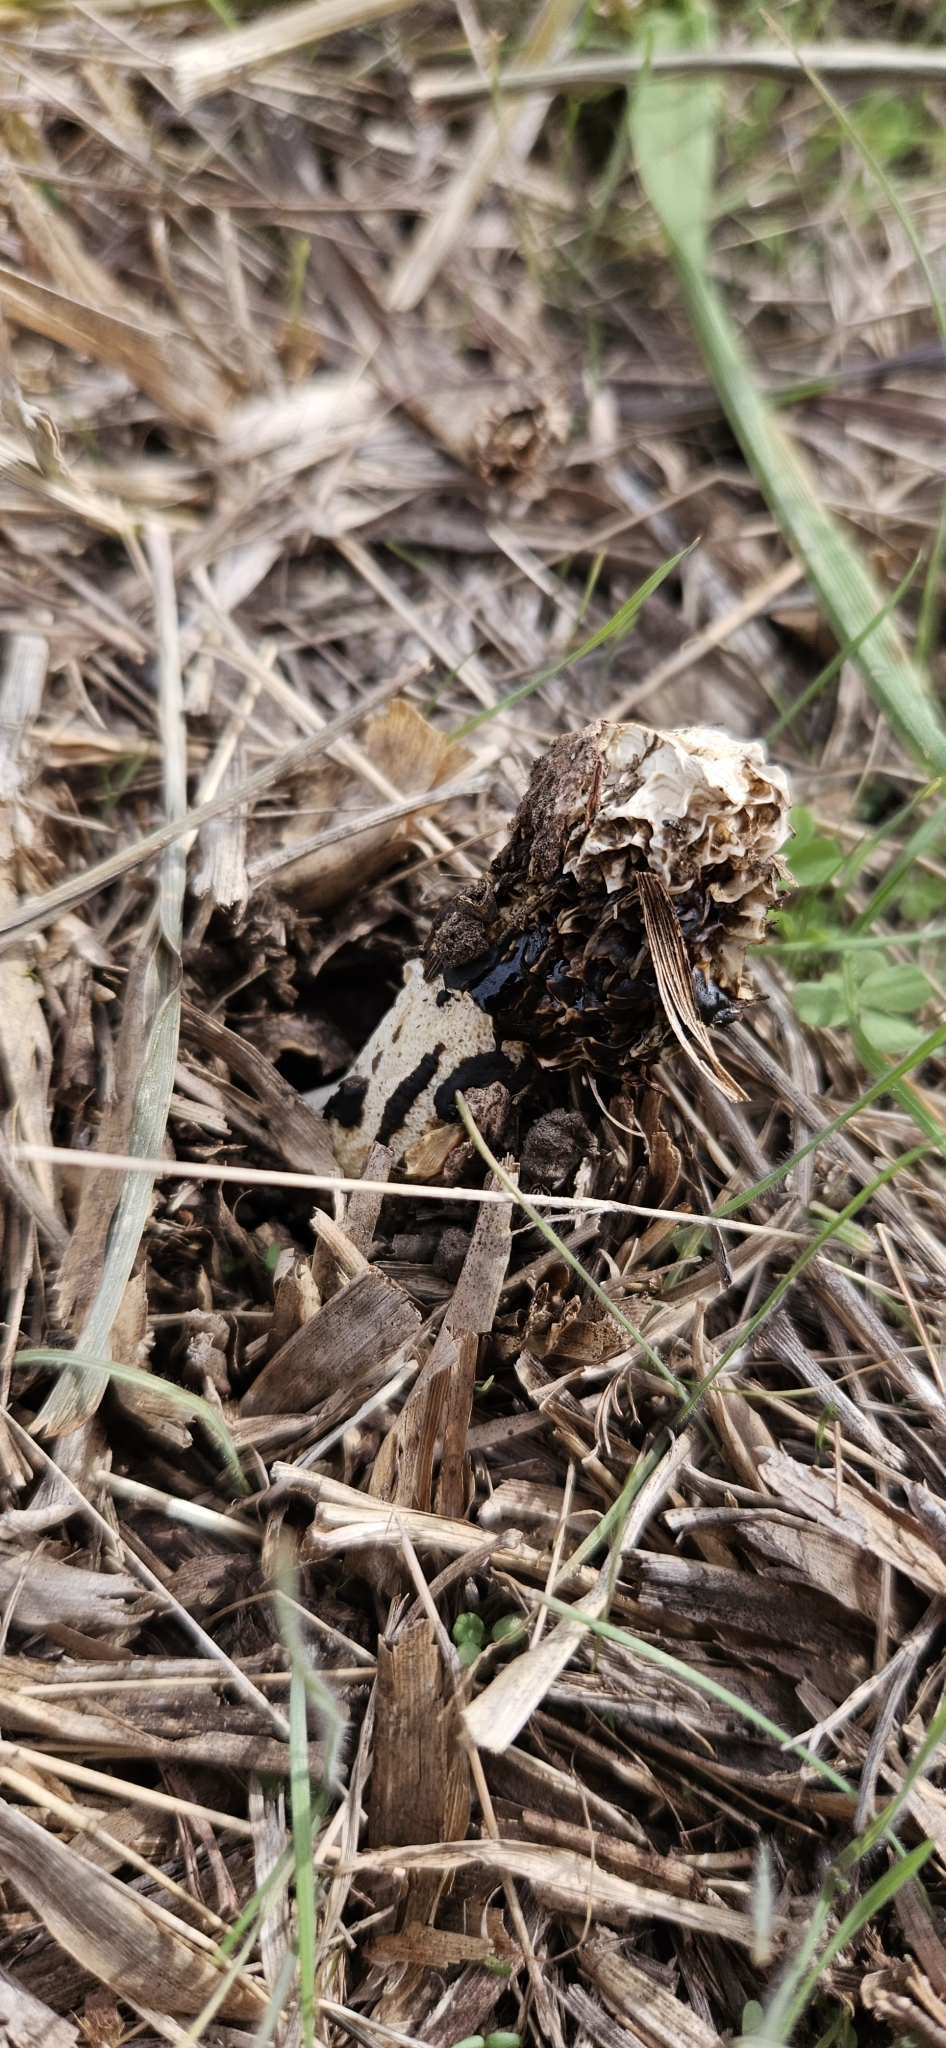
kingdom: Fungi
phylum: Basidiomycota
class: Agaricomycetes
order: Phallales
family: Phallaceae
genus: Phallus
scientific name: Phallus impudicus
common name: Common stinkhorn
